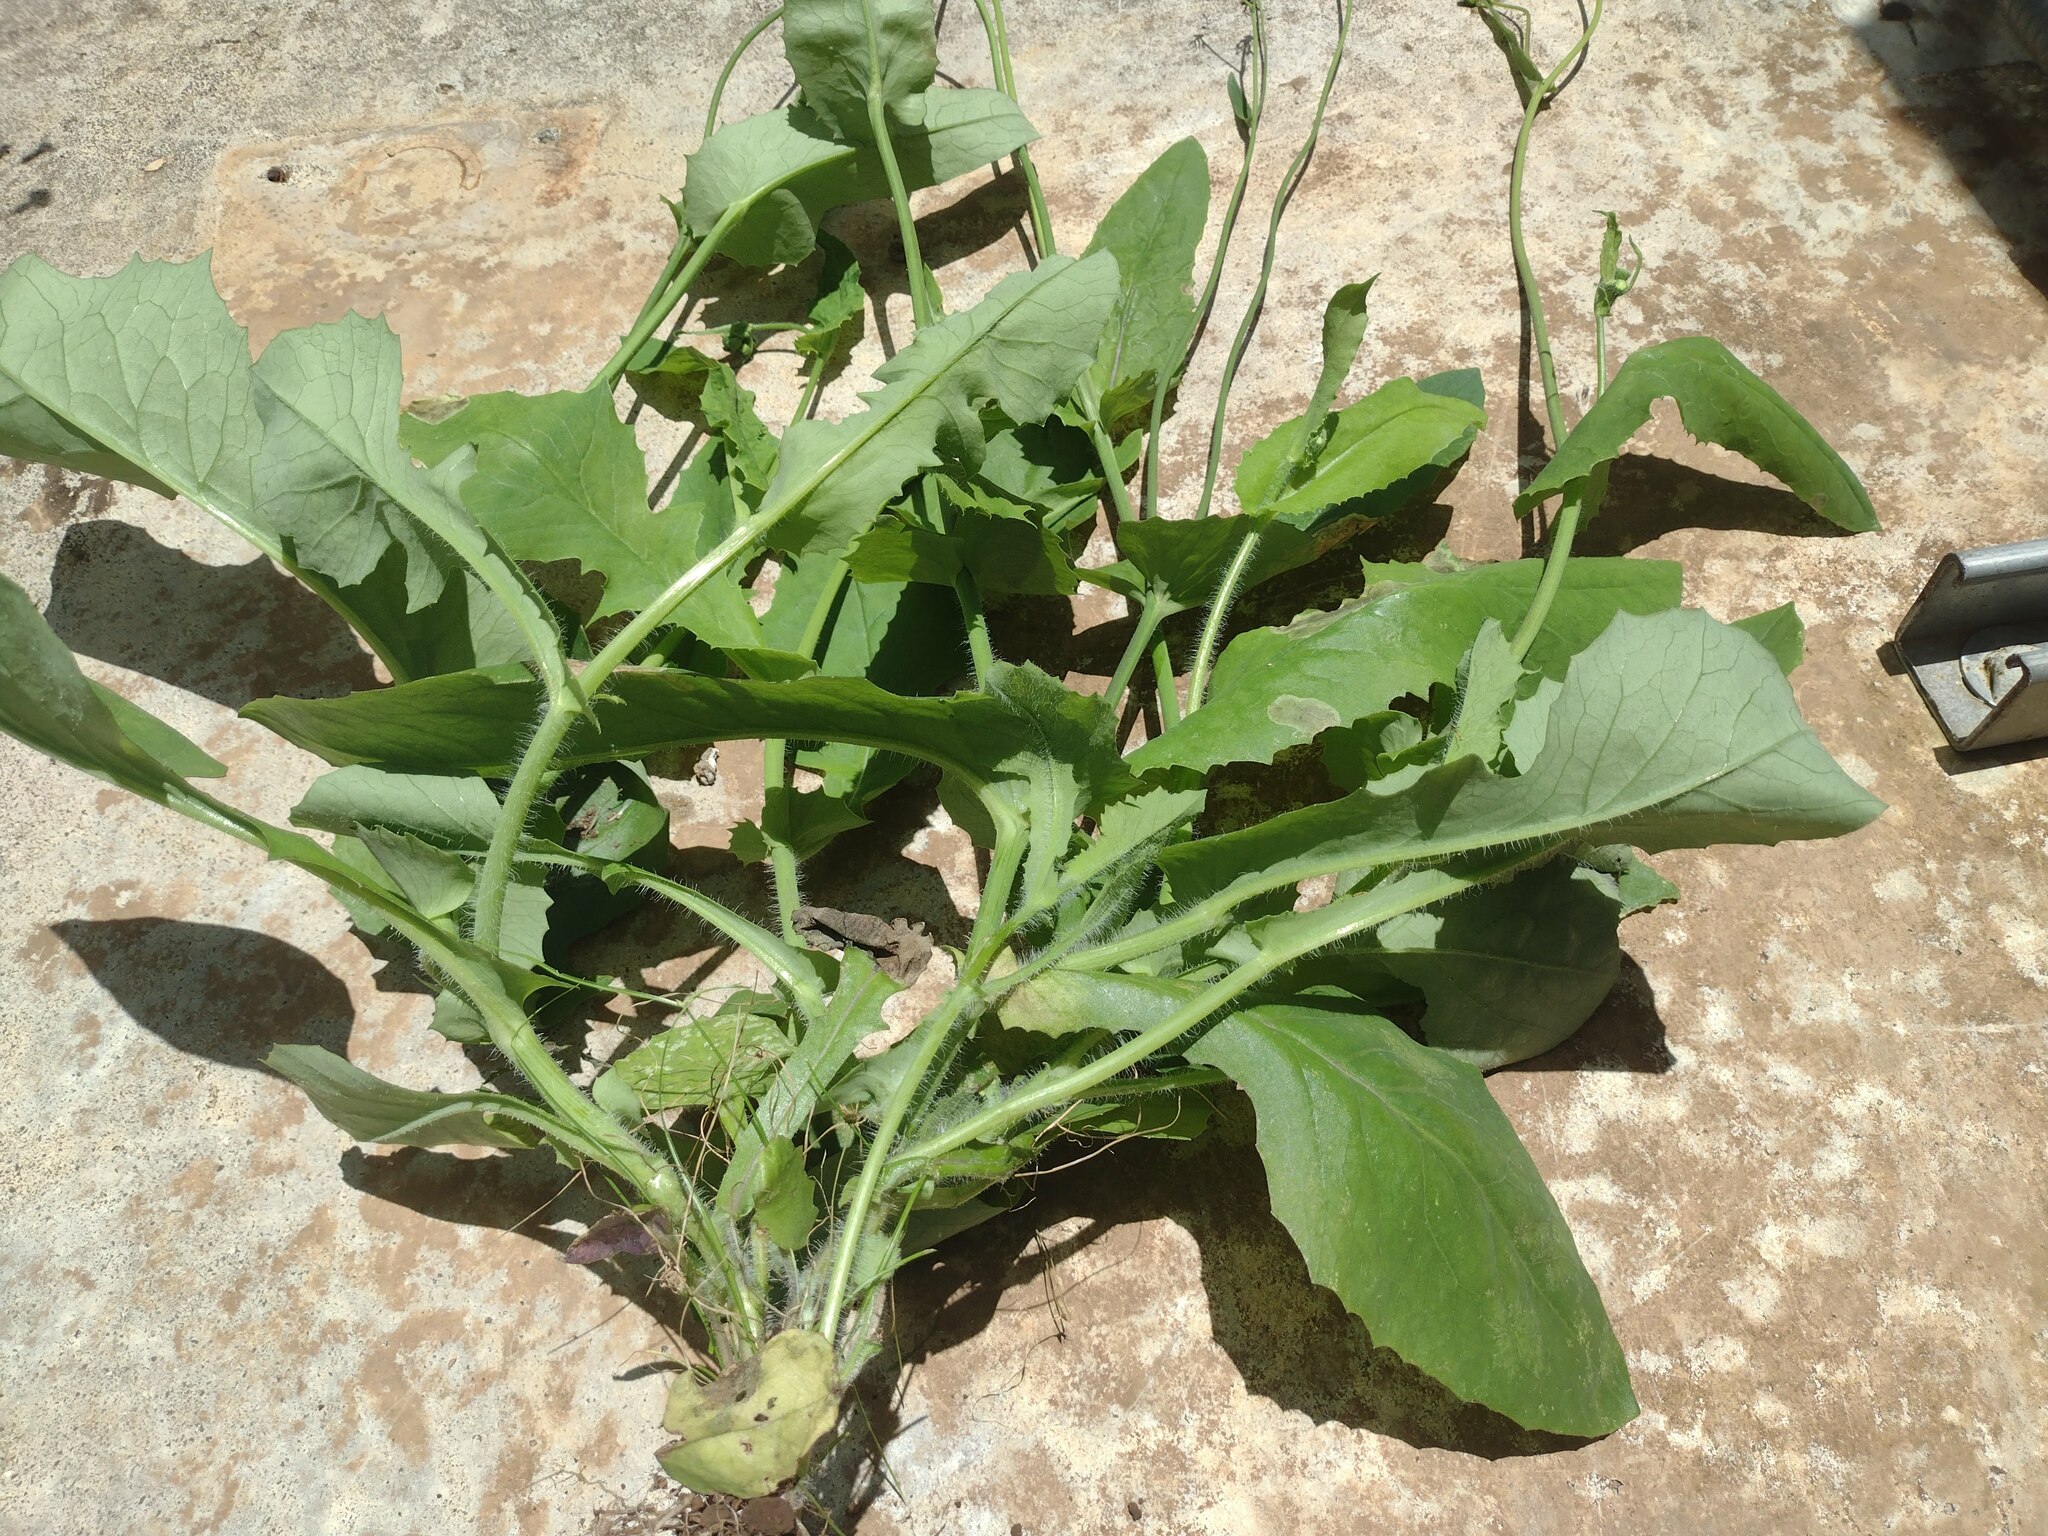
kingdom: Plantae
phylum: Tracheophyta
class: Magnoliopsida
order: Asterales
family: Asteraceae
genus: Emilia
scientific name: Emilia coccinea
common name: Scarlet tasselflower
